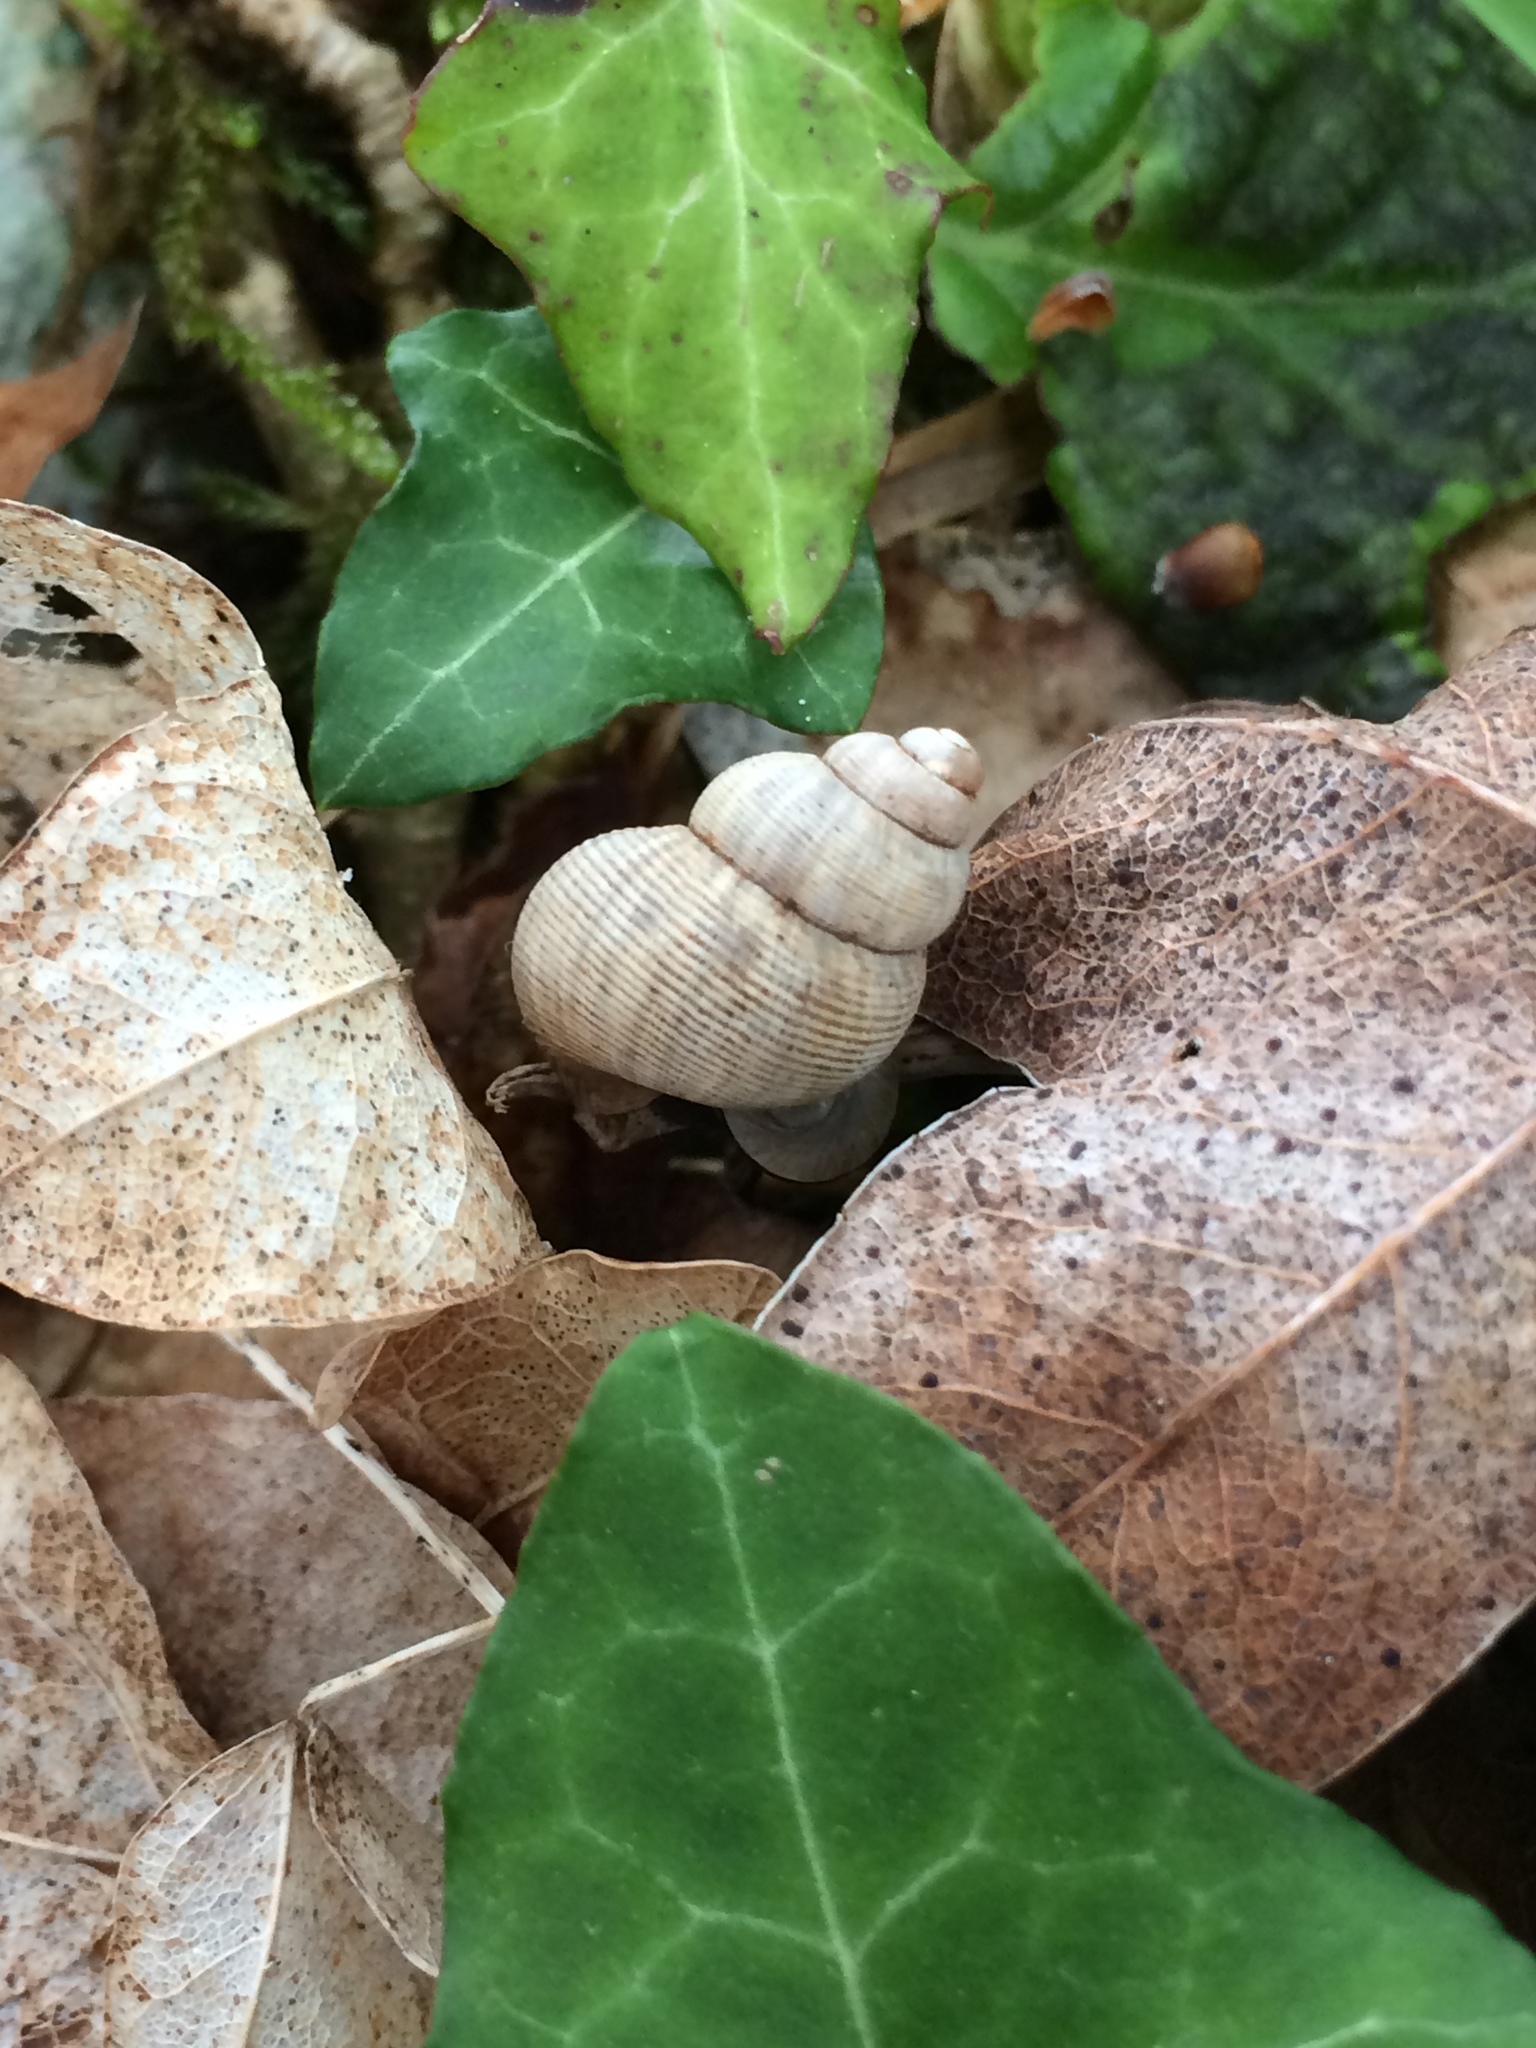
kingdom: Animalia
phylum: Mollusca
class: Gastropoda
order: Littorinimorpha
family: Pomatiidae
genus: Pomatias
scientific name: Pomatias elegans
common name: Red-mouthed snail
